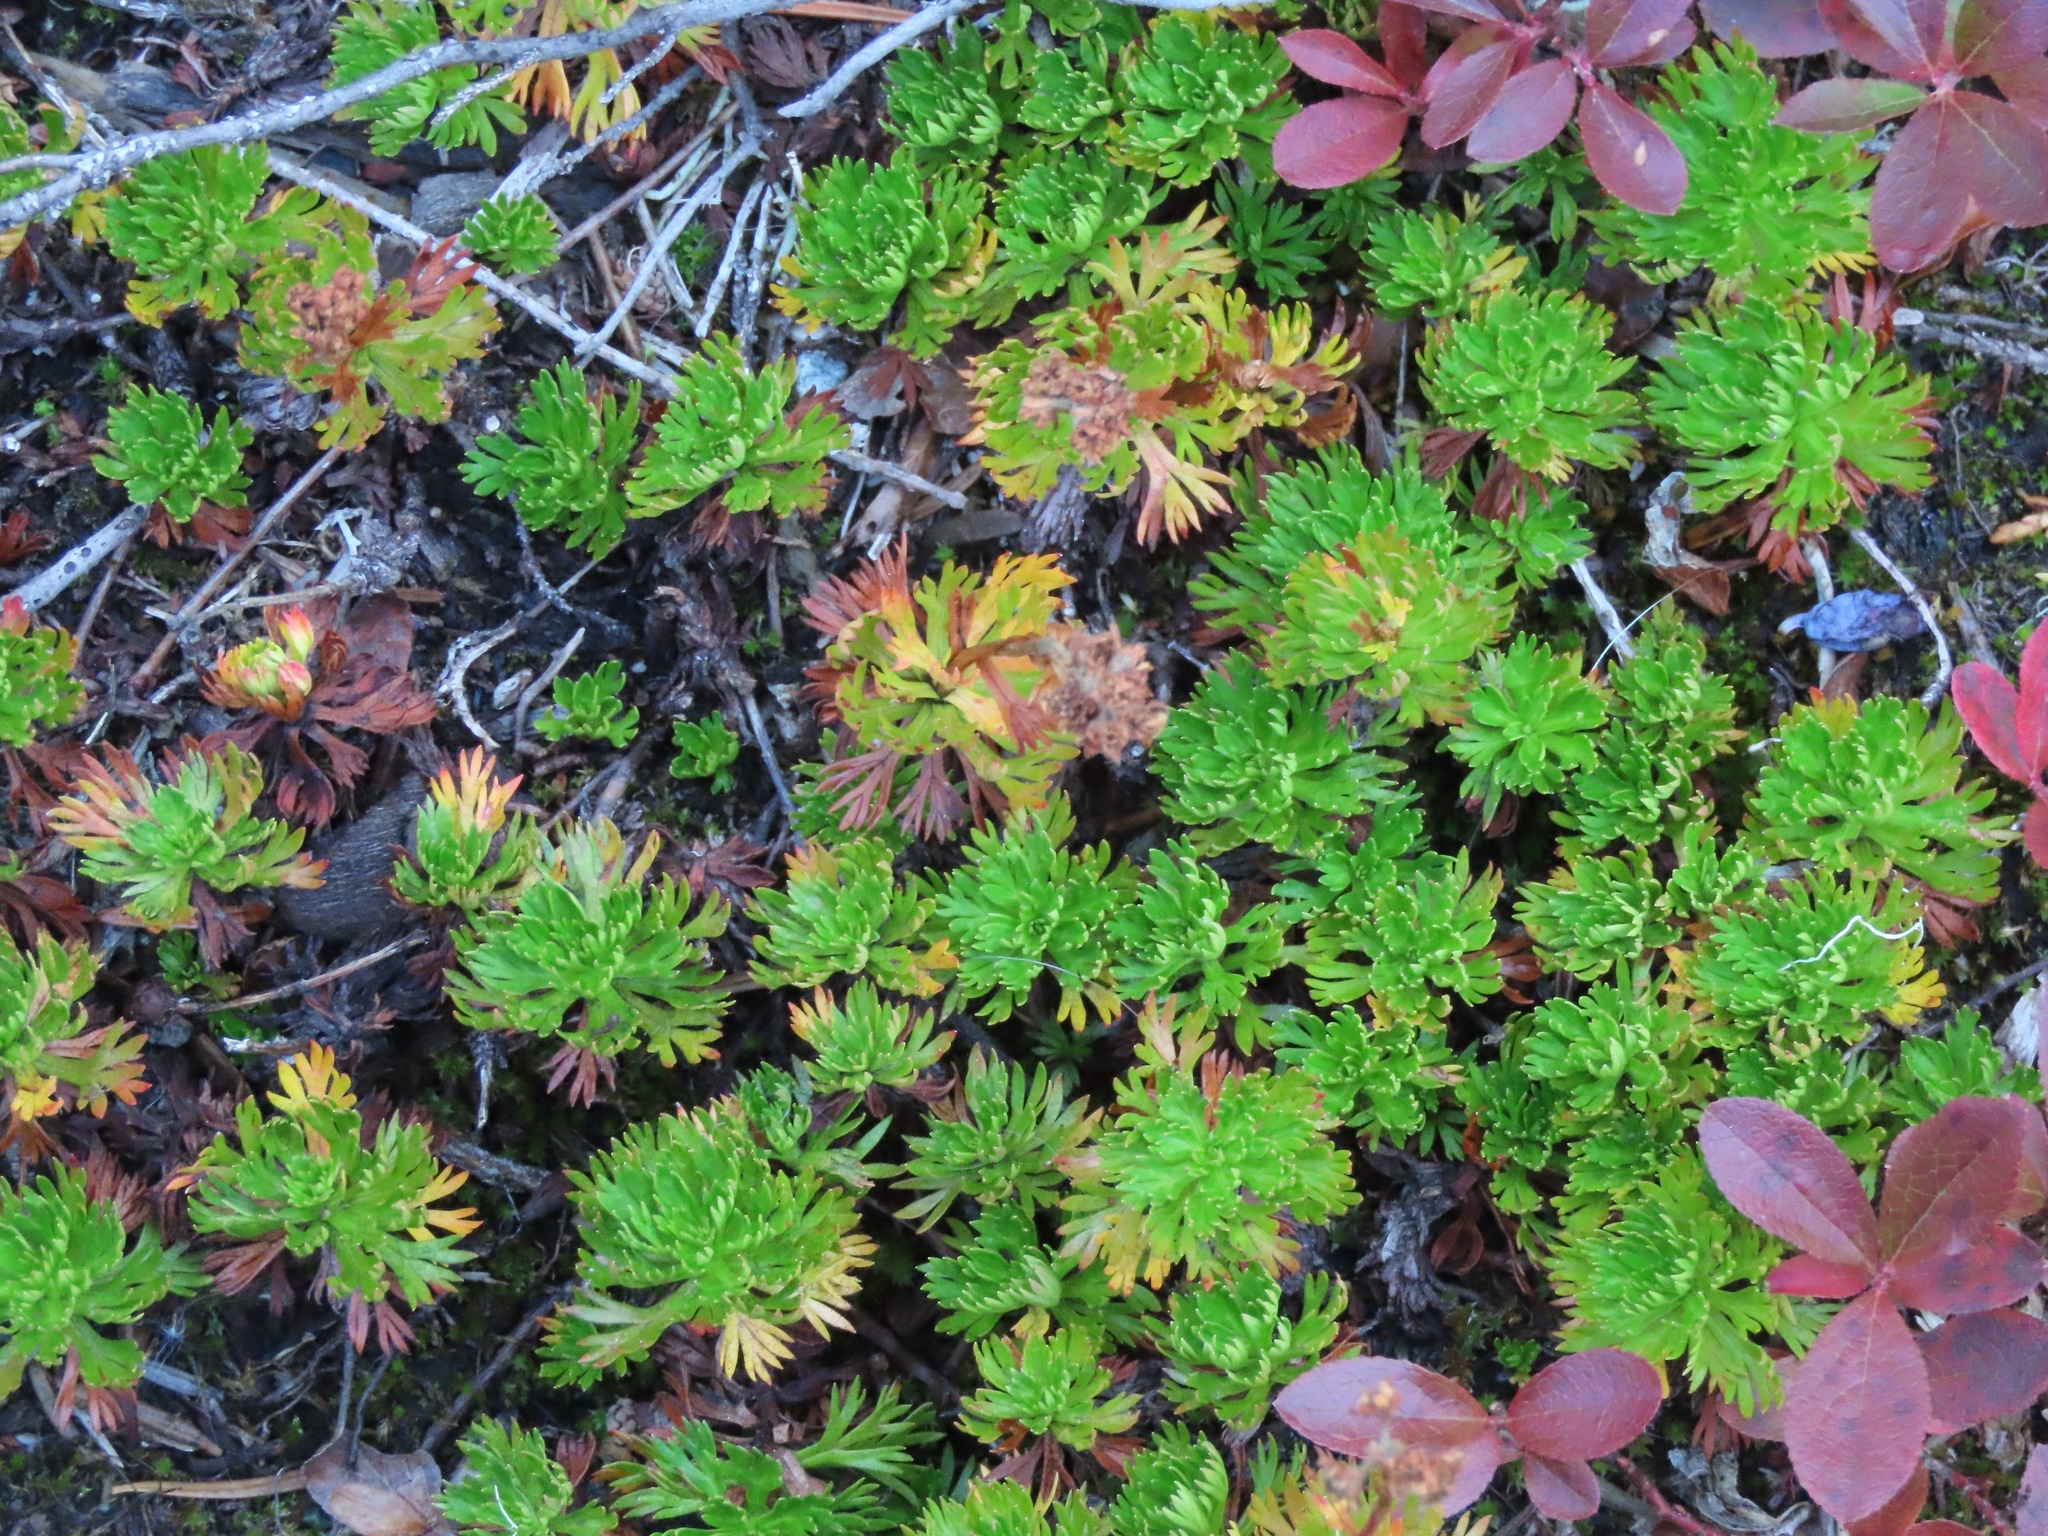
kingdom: Plantae
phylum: Tracheophyta
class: Magnoliopsida
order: Rosales
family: Rosaceae
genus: Luetkea
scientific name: Luetkea pectinata
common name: Partridgefoot
